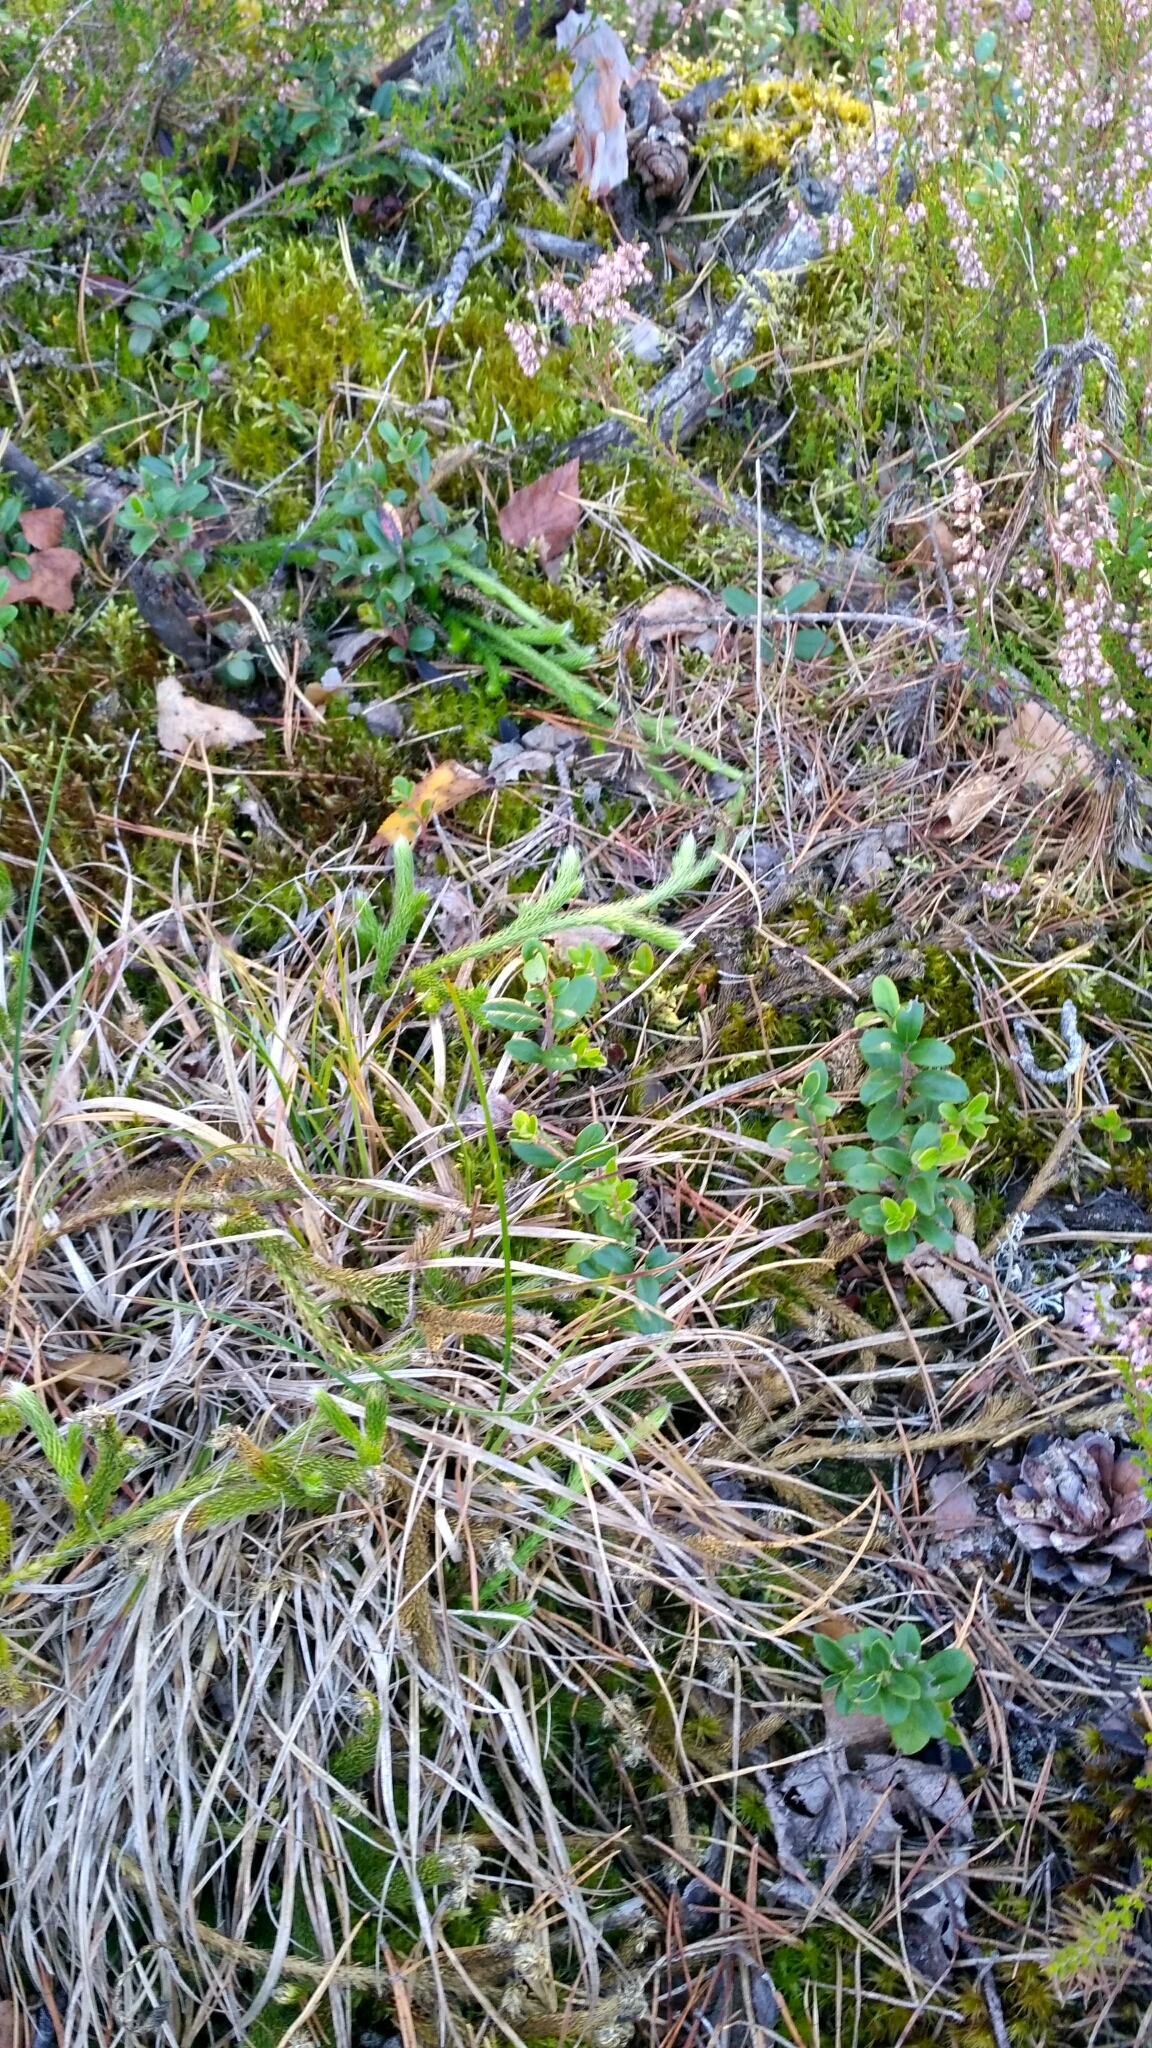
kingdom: Plantae
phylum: Tracheophyta
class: Lycopodiopsida
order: Lycopodiales
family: Lycopodiaceae
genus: Lycopodium
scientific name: Lycopodium clavatum
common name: Stag's-horn clubmoss
